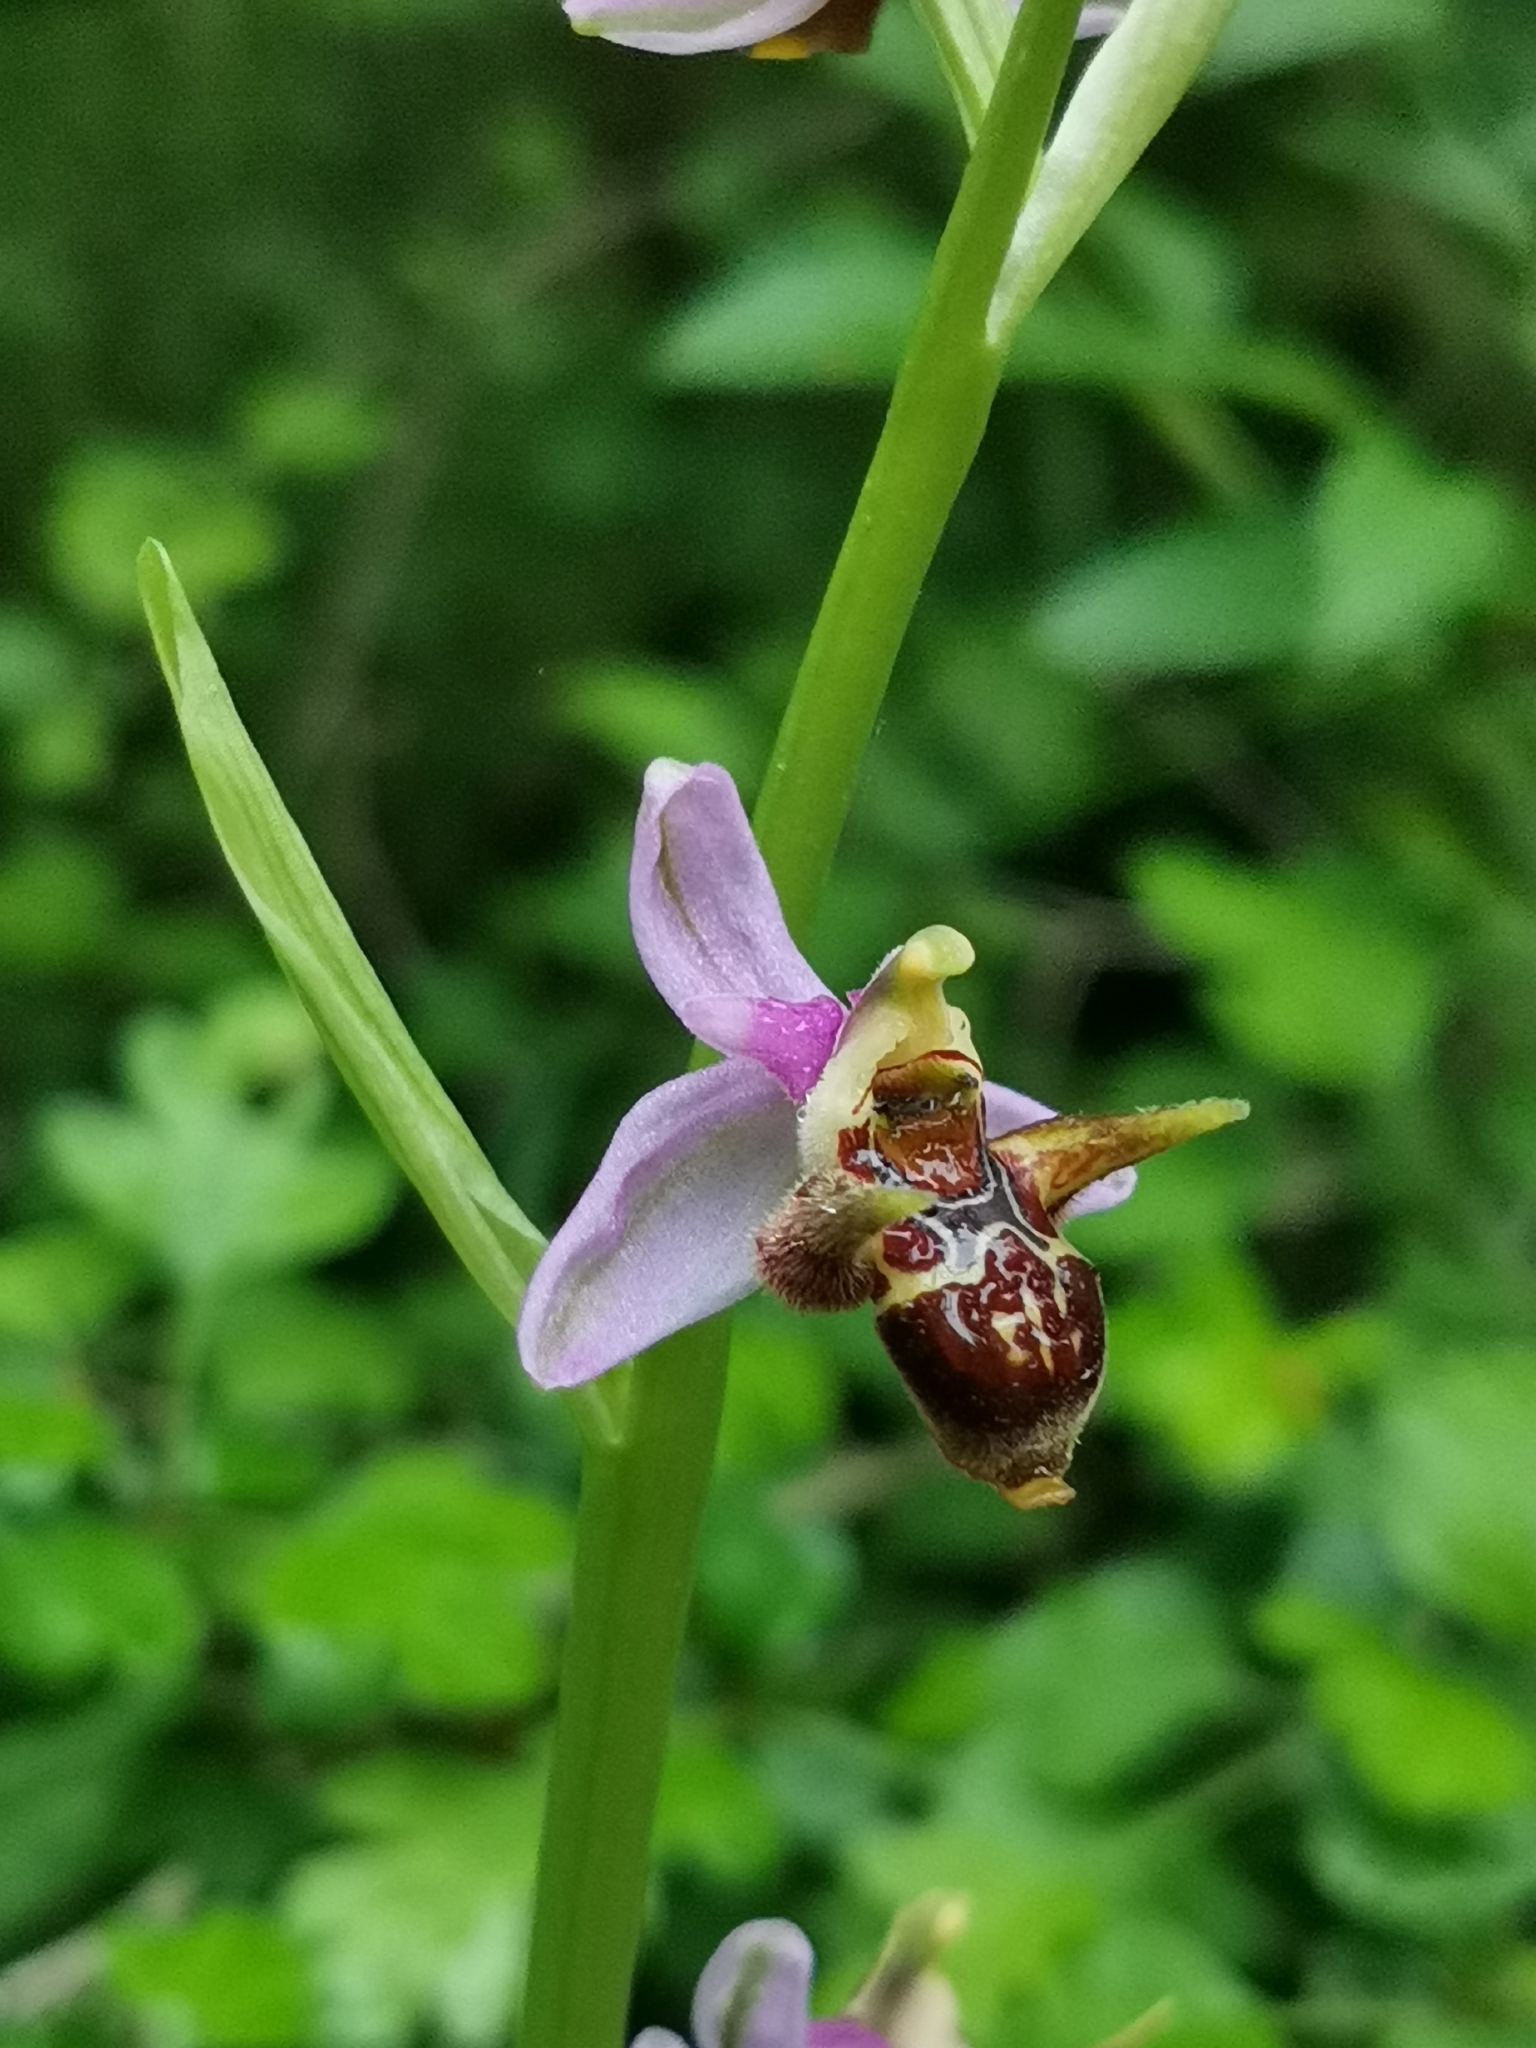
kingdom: Plantae
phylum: Tracheophyta
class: Liliopsida
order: Asparagales
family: Orchidaceae
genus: Ophrys
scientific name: Ophrys
